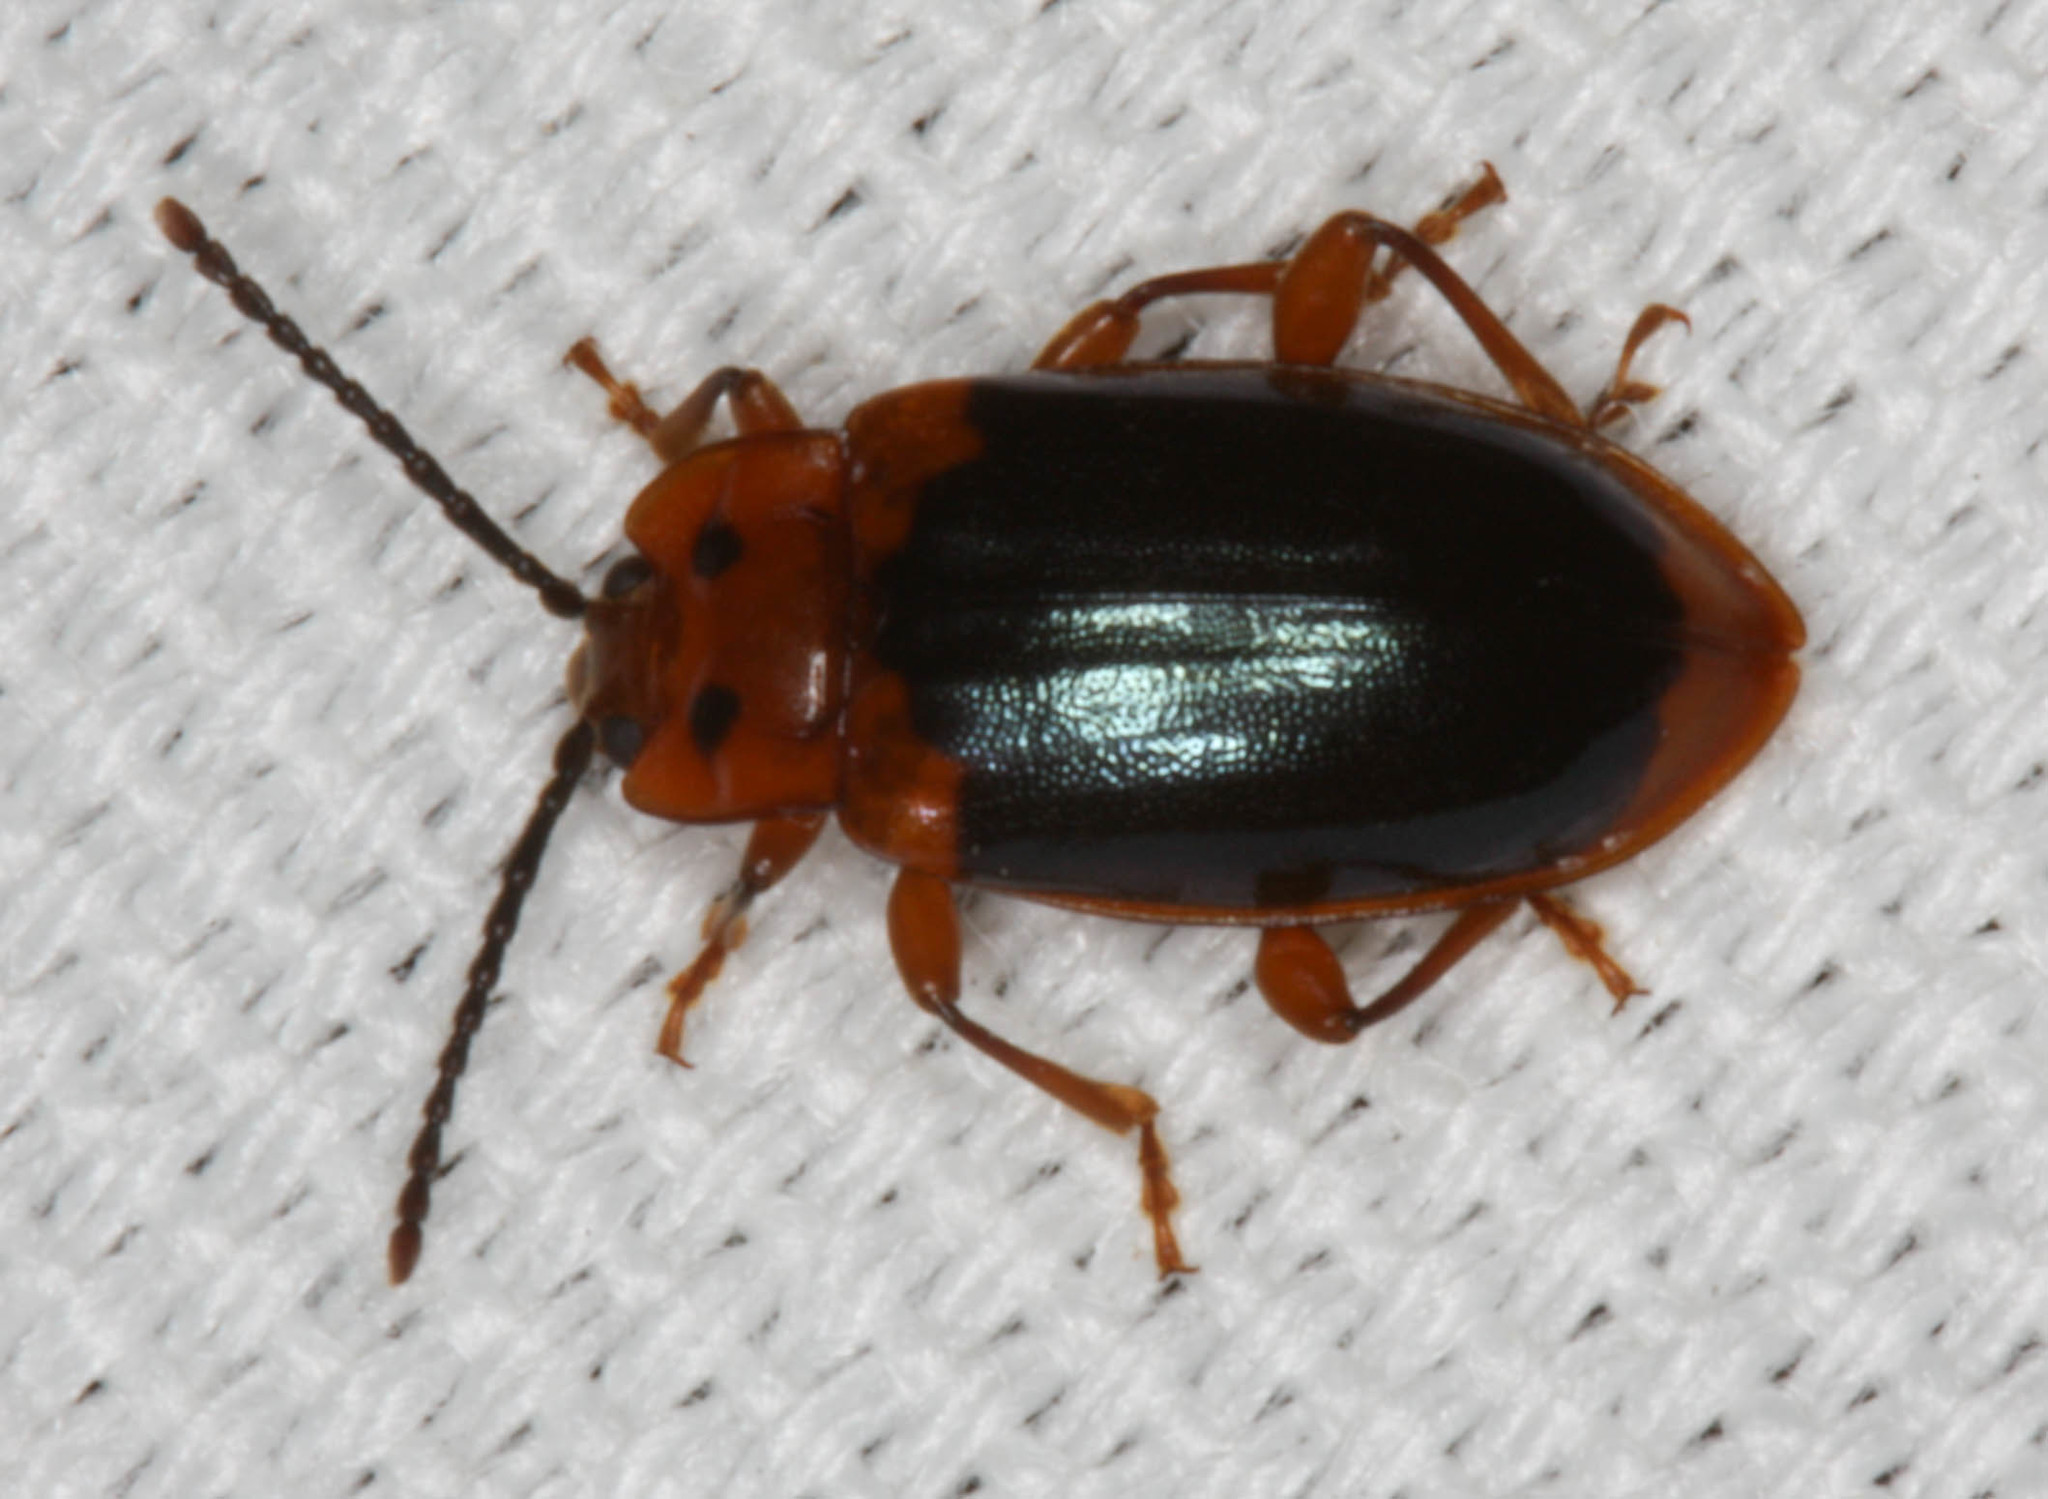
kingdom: Animalia
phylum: Arthropoda
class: Insecta
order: Coleoptera
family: Endomychidae
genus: Aphorista
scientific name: Aphorista laeta
